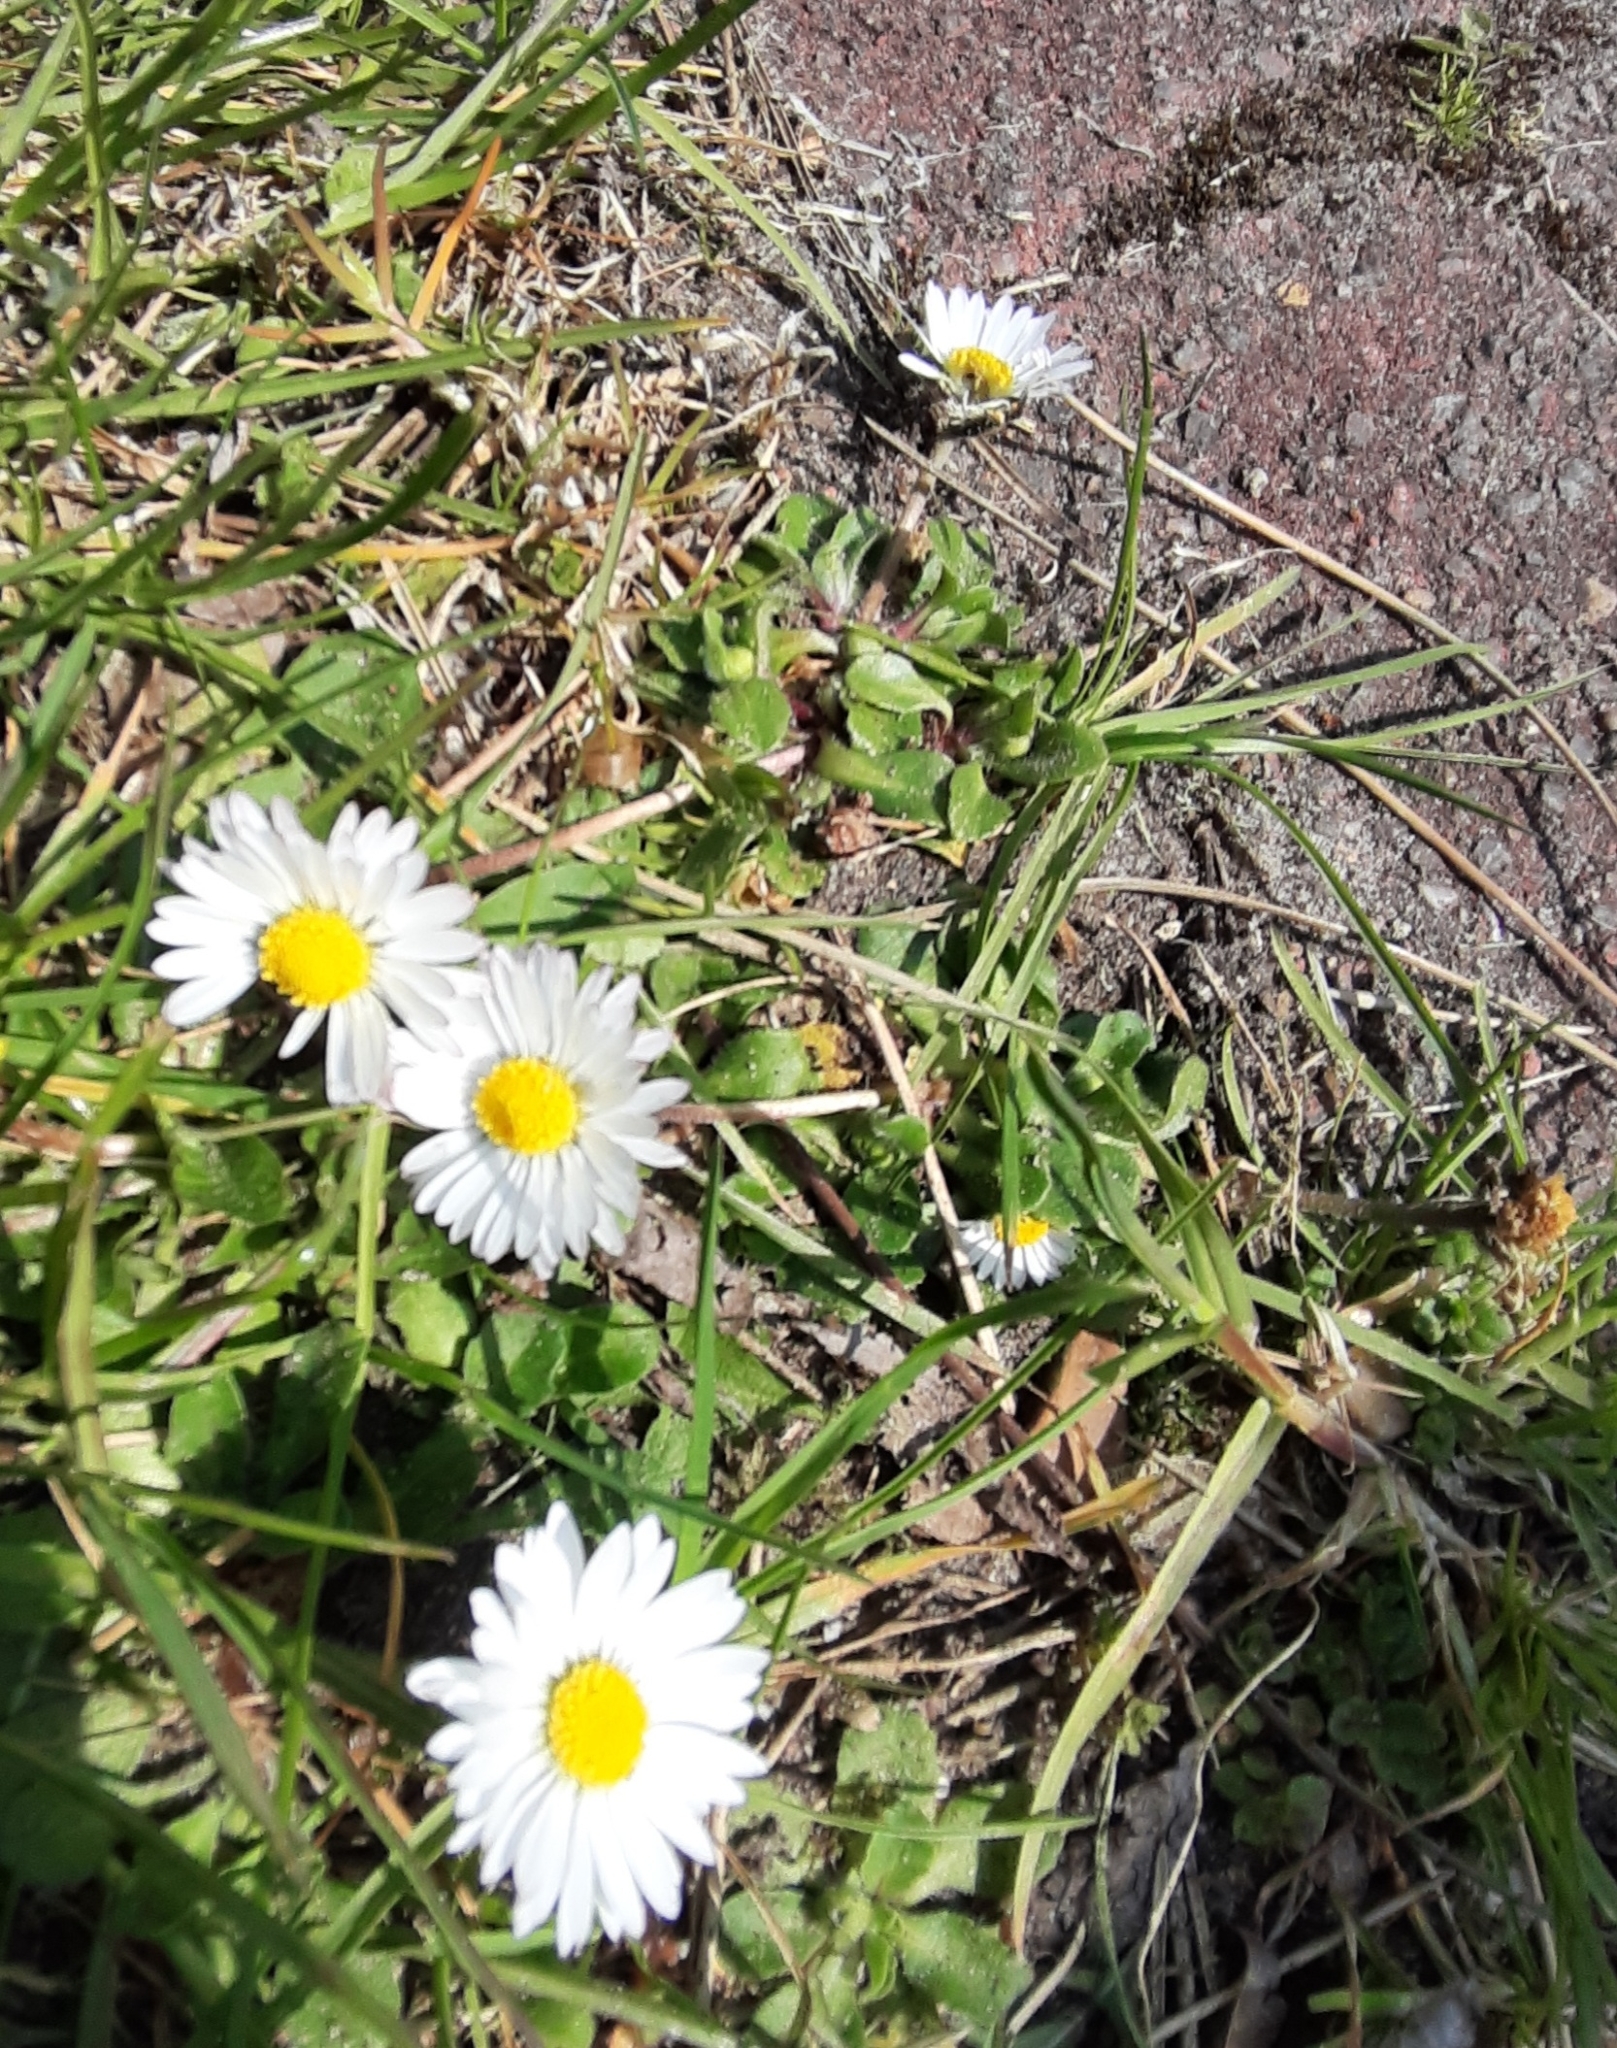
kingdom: Plantae
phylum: Tracheophyta
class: Magnoliopsida
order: Asterales
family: Asteraceae
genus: Bellis
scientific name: Bellis perennis
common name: Lawndaisy
